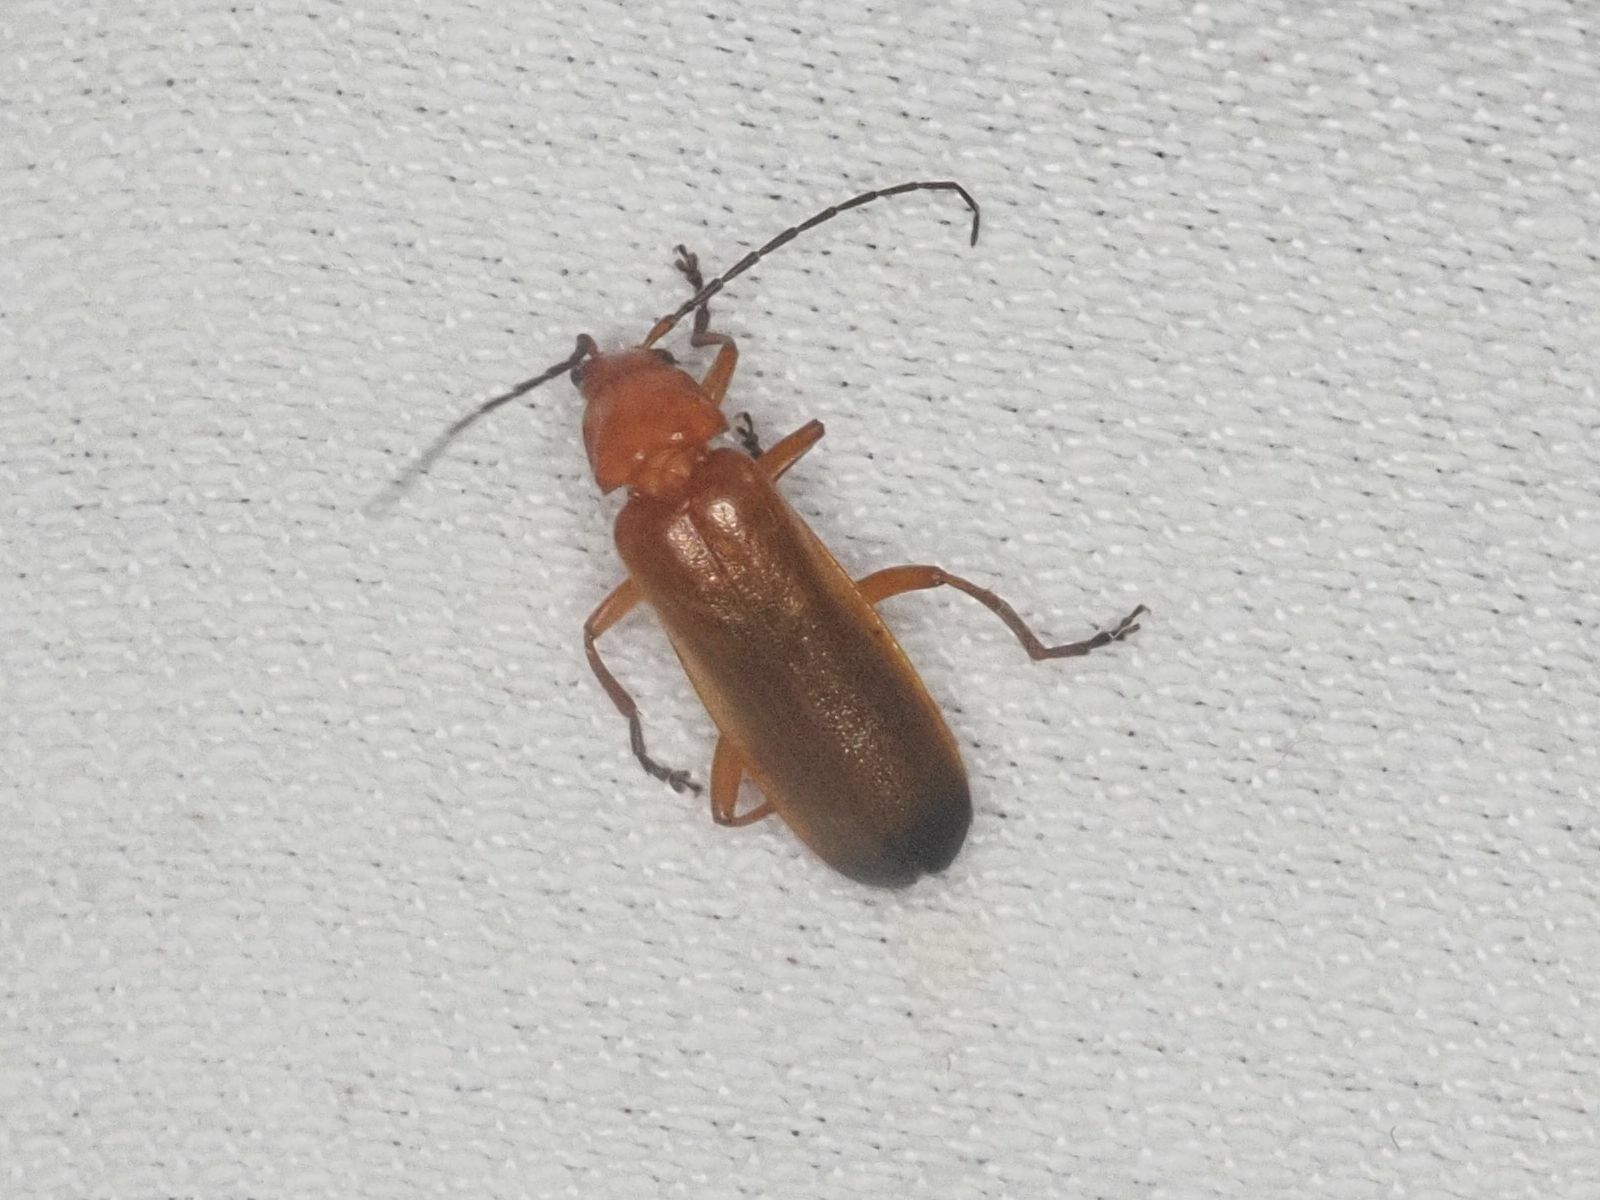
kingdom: Animalia
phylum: Arthropoda
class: Insecta
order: Coleoptera
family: Cantharidae
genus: Rhagonycha
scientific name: Rhagonycha fulva
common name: Common red soldier beetle
